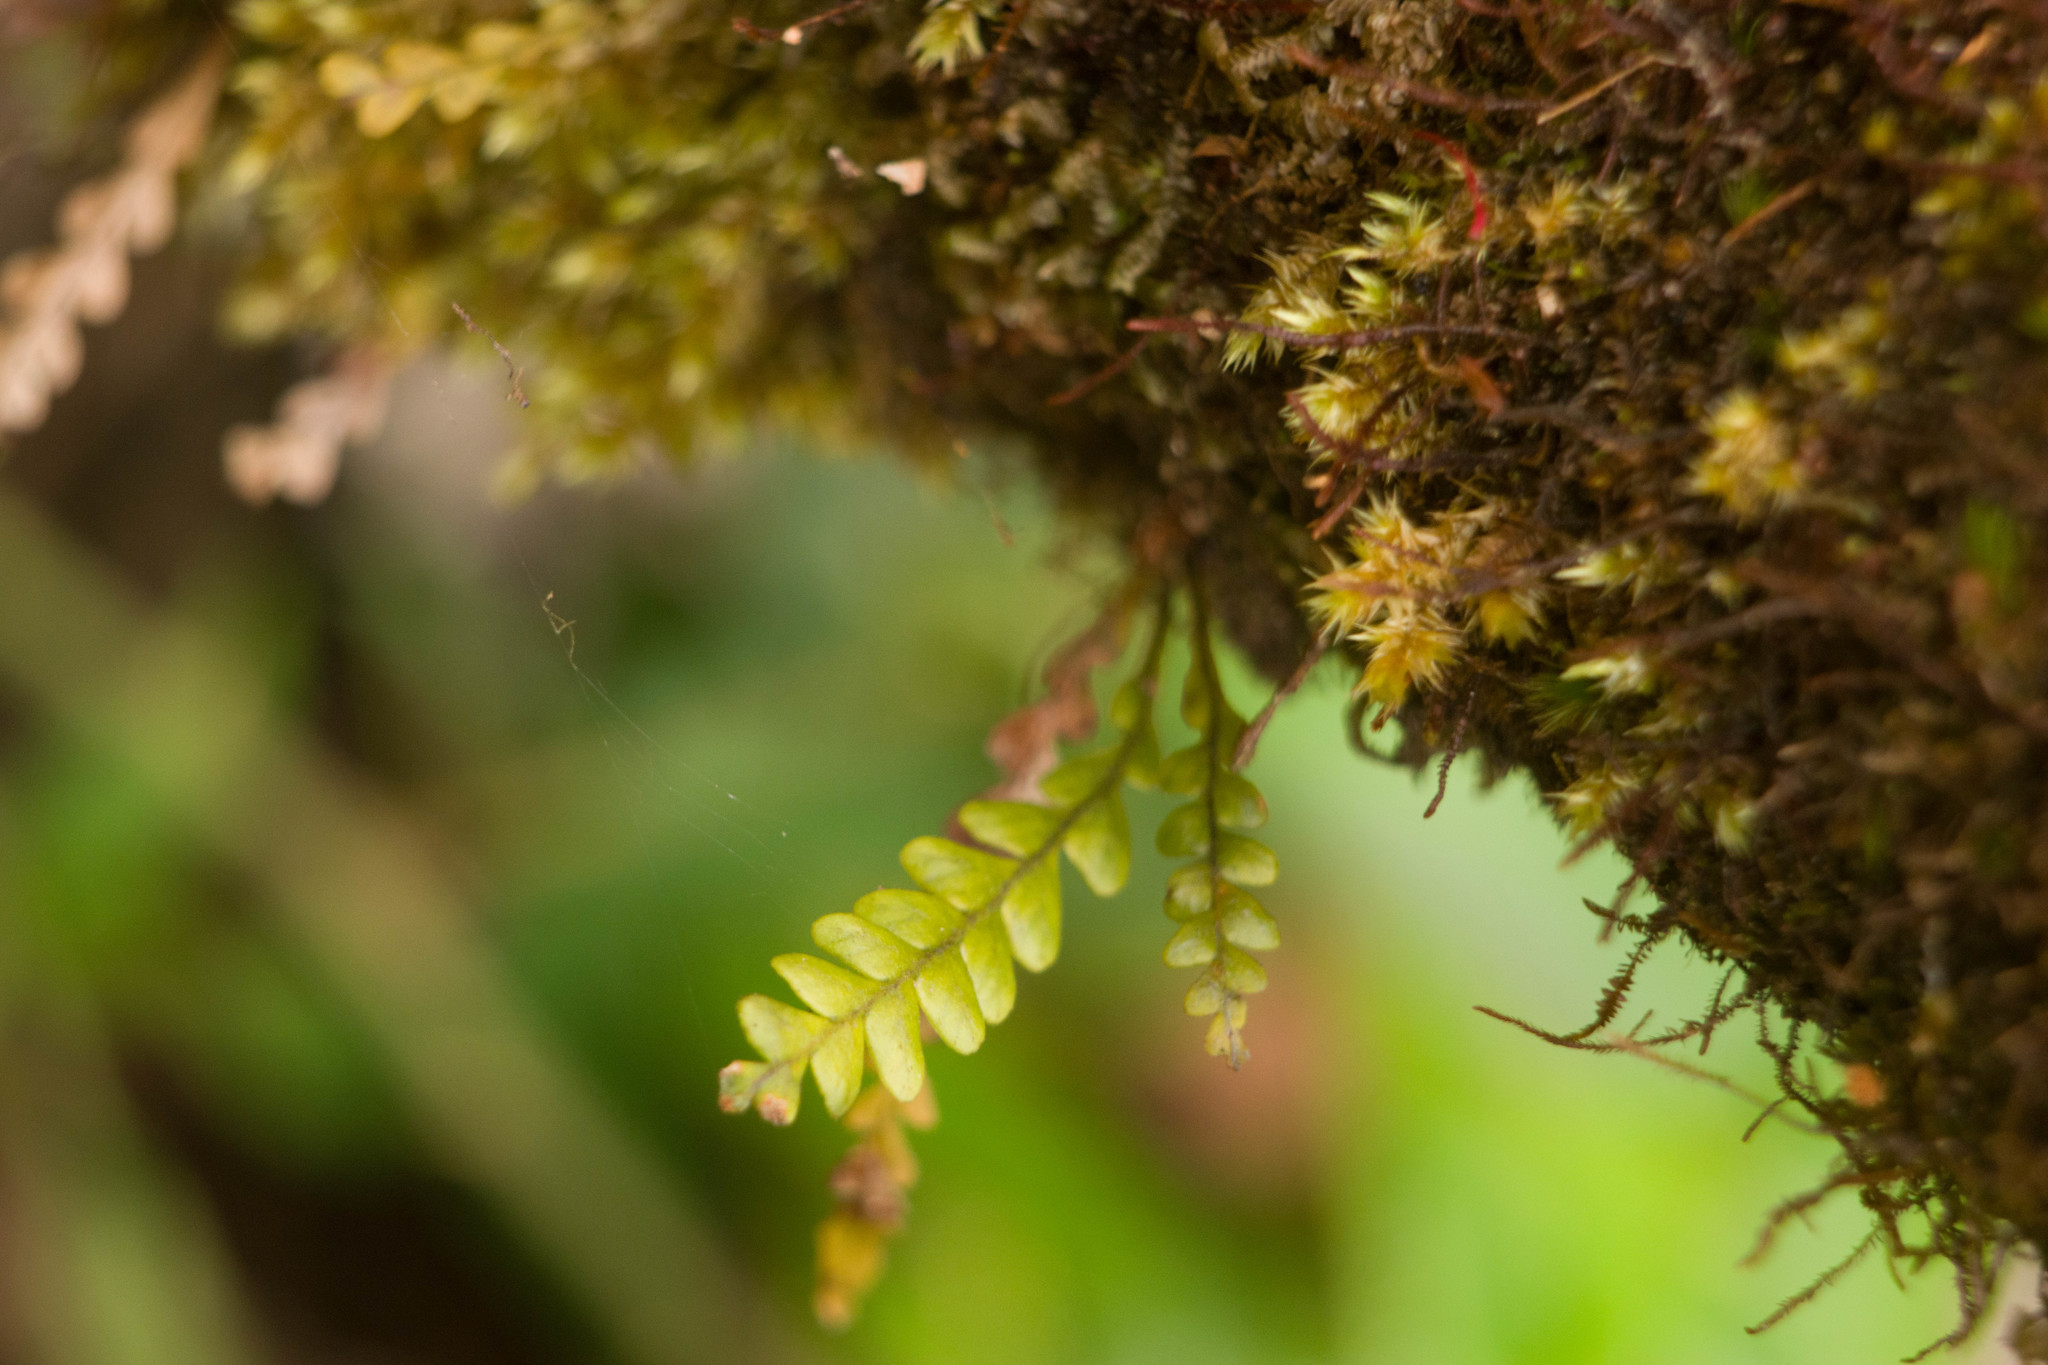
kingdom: Plantae
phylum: Tracheophyta
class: Polypodiopsida
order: Polypodiales
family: Polypodiaceae
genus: Adenophorus
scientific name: Adenophorus pinnatifidus
